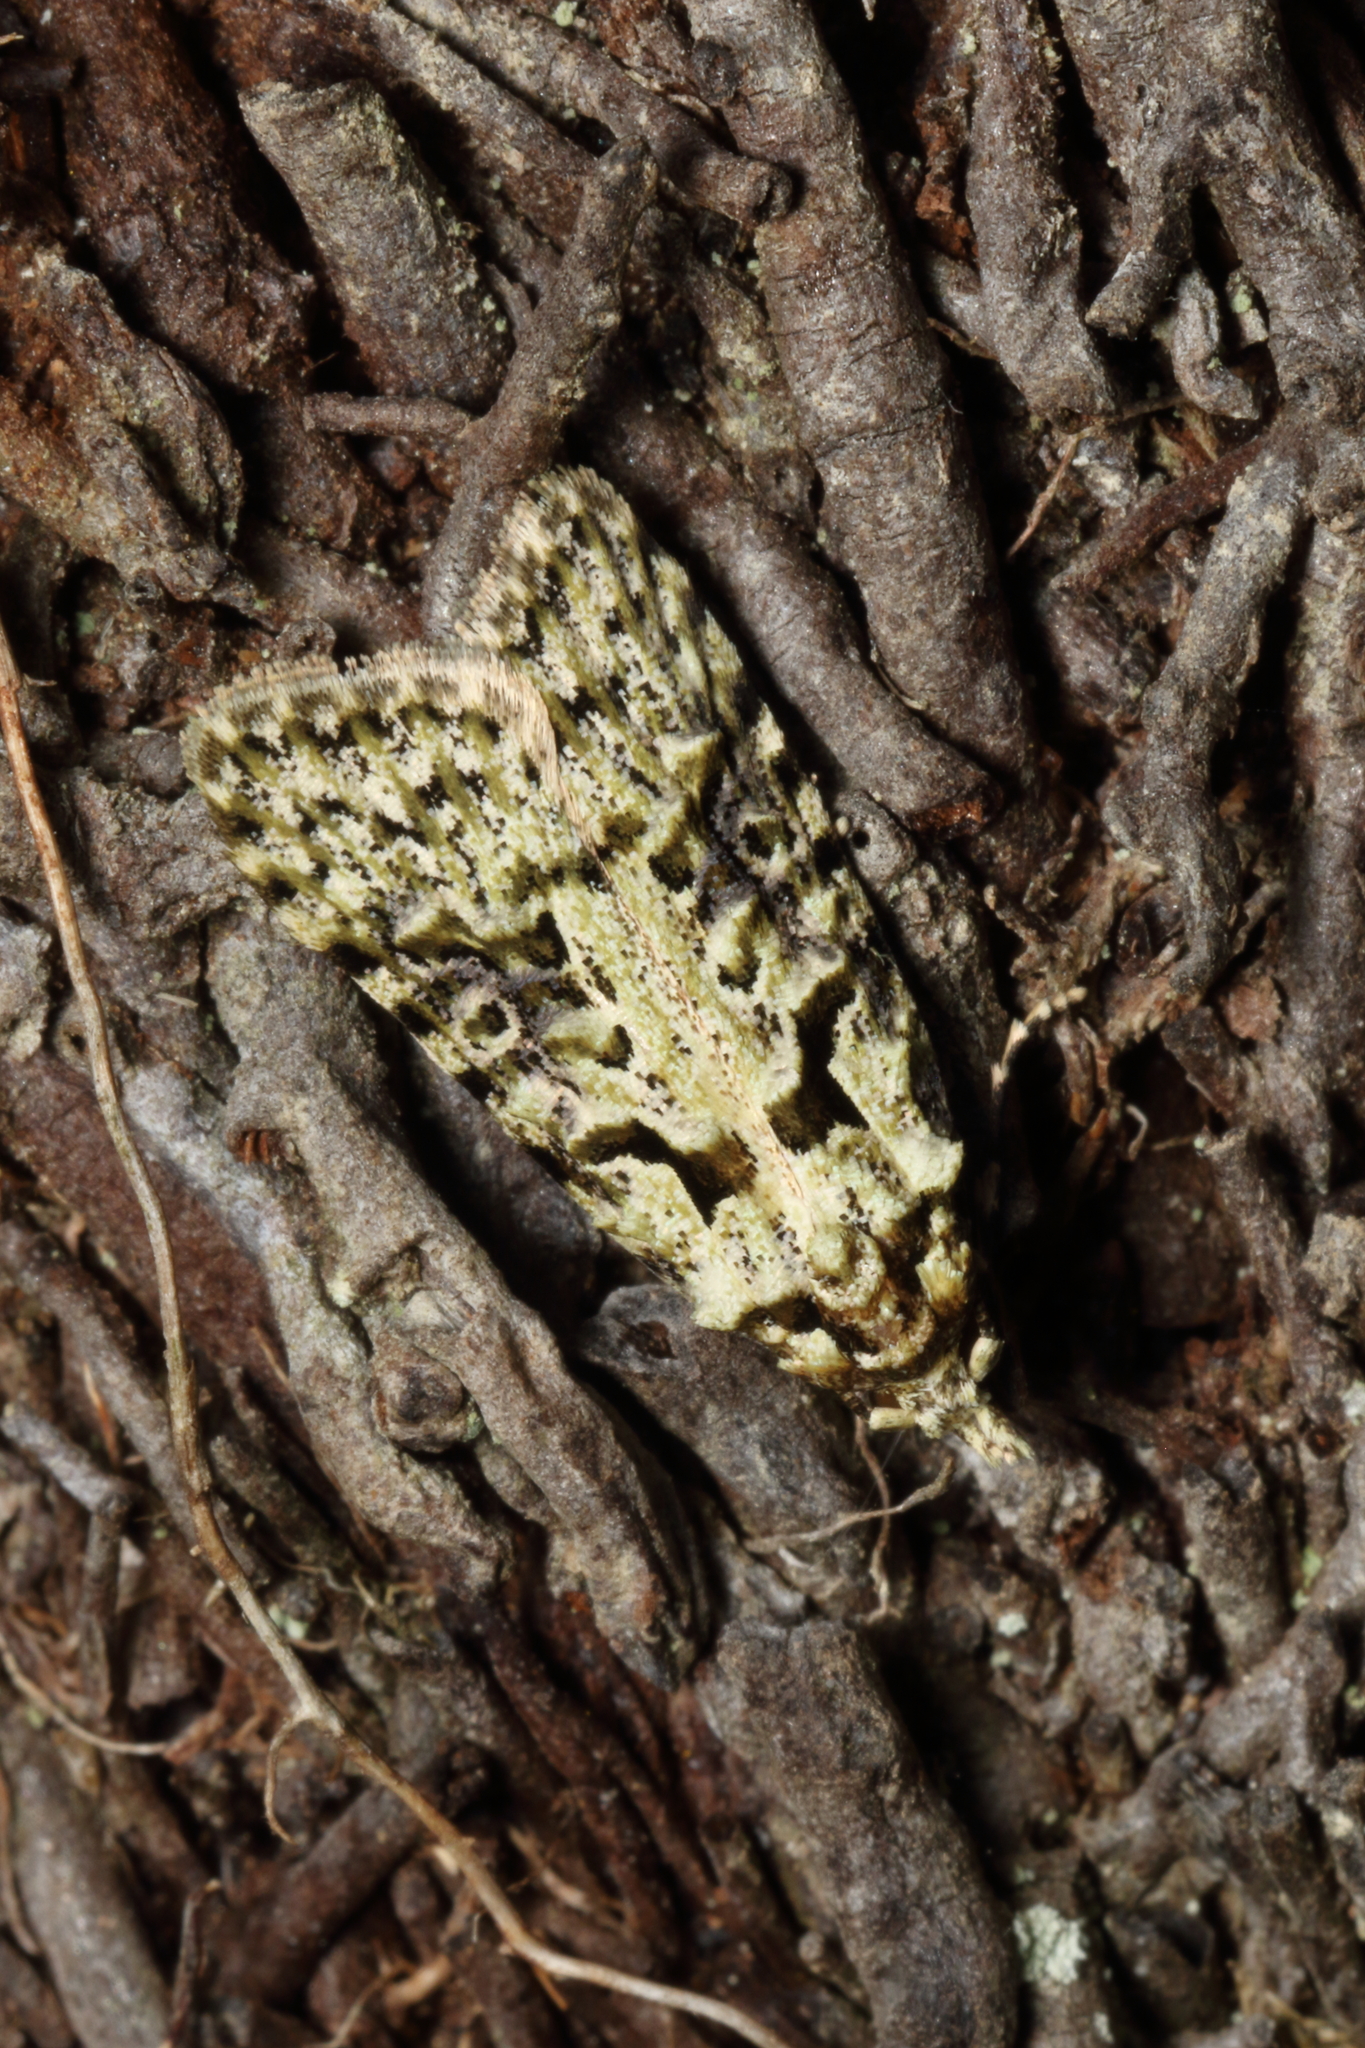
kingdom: Animalia
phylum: Arthropoda
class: Insecta
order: Lepidoptera
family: Carposinidae
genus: Carposina
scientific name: Carposina Heterocrossa eriphylla
